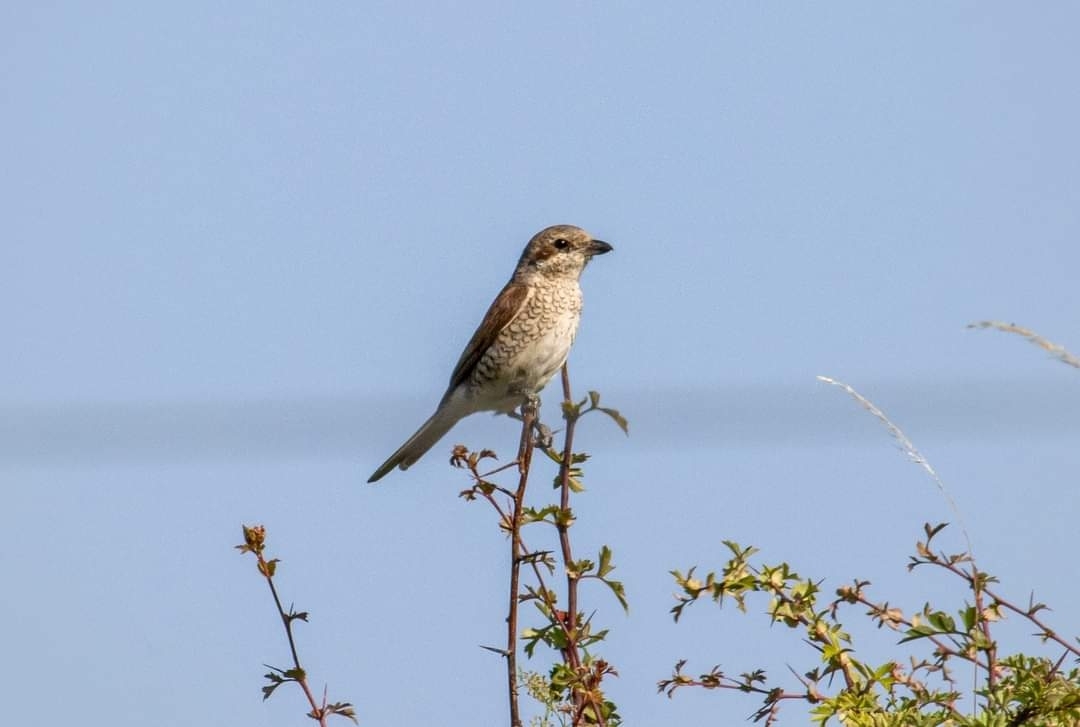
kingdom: Animalia
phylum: Chordata
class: Aves
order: Passeriformes
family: Laniidae
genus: Lanius
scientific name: Lanius collurio
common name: Red-backed shrike
